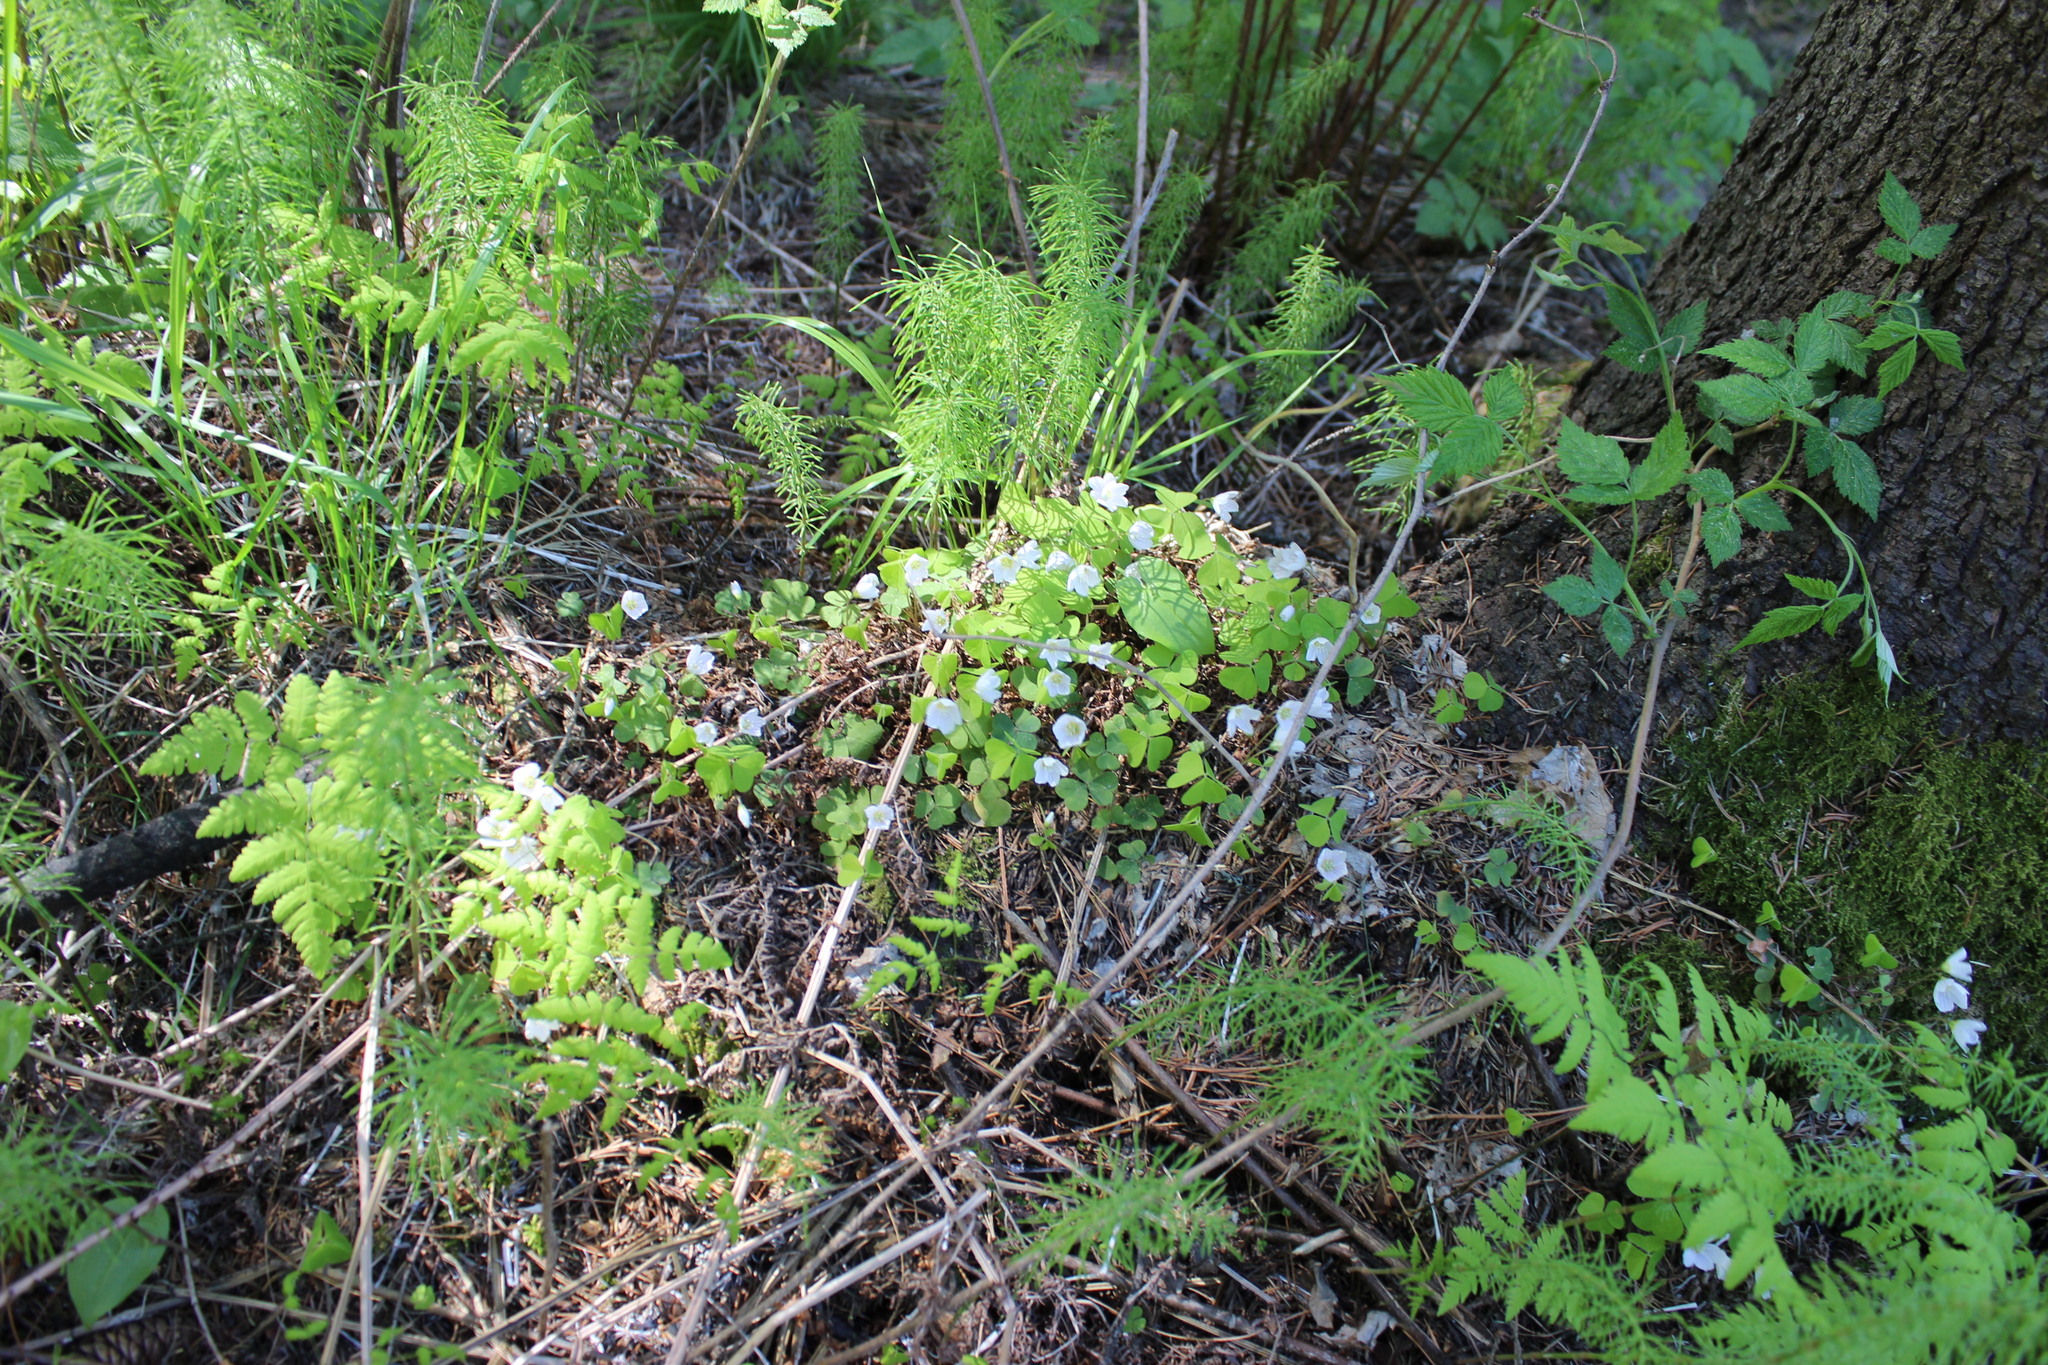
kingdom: Plantae
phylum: Tracheophyta
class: Magnoliopsida
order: Oxalidales
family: Oxalidaceae
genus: Oxalis
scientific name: Oxalis acetosella
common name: Wood-sorrel
